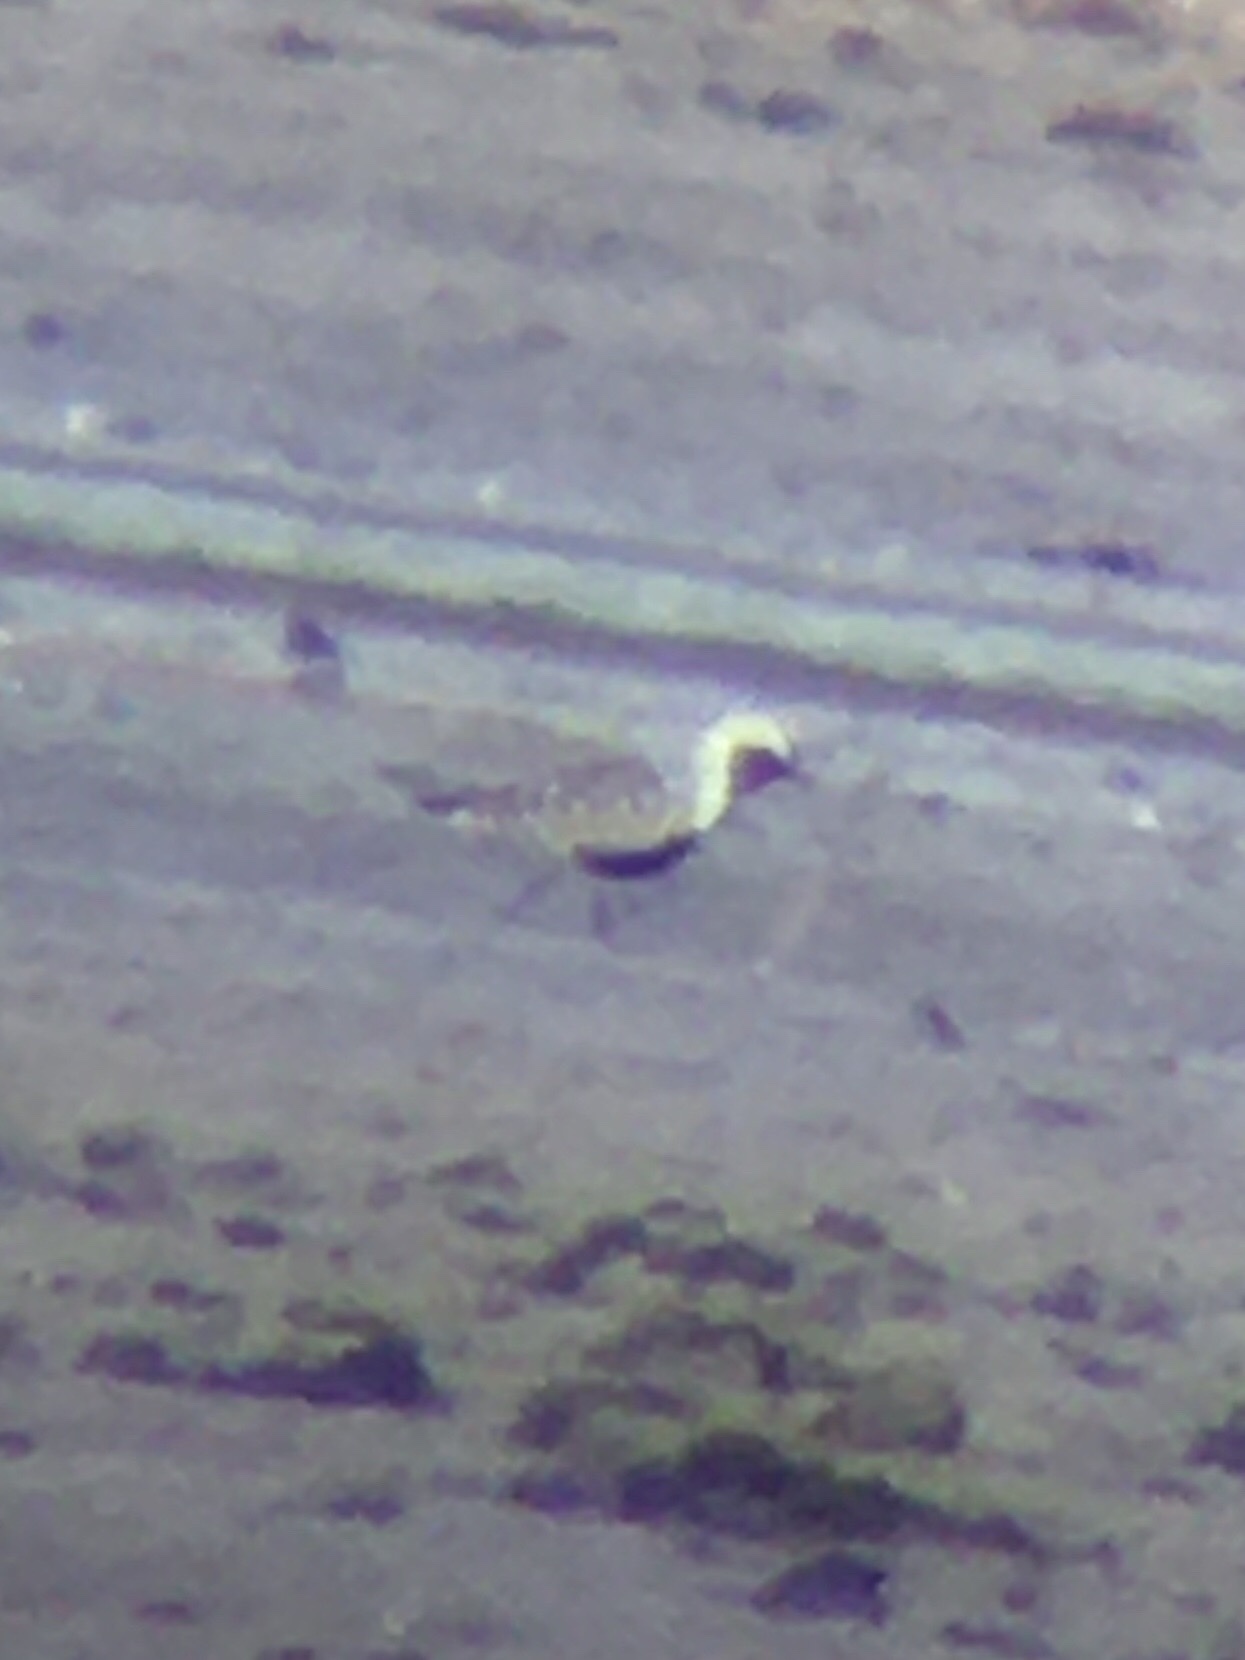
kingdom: Animalia
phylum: Chordata
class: Aves
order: Charadriiformes
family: Charadriidae
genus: Pluvialis
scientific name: Pluvialis squatarola
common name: Grey plover
